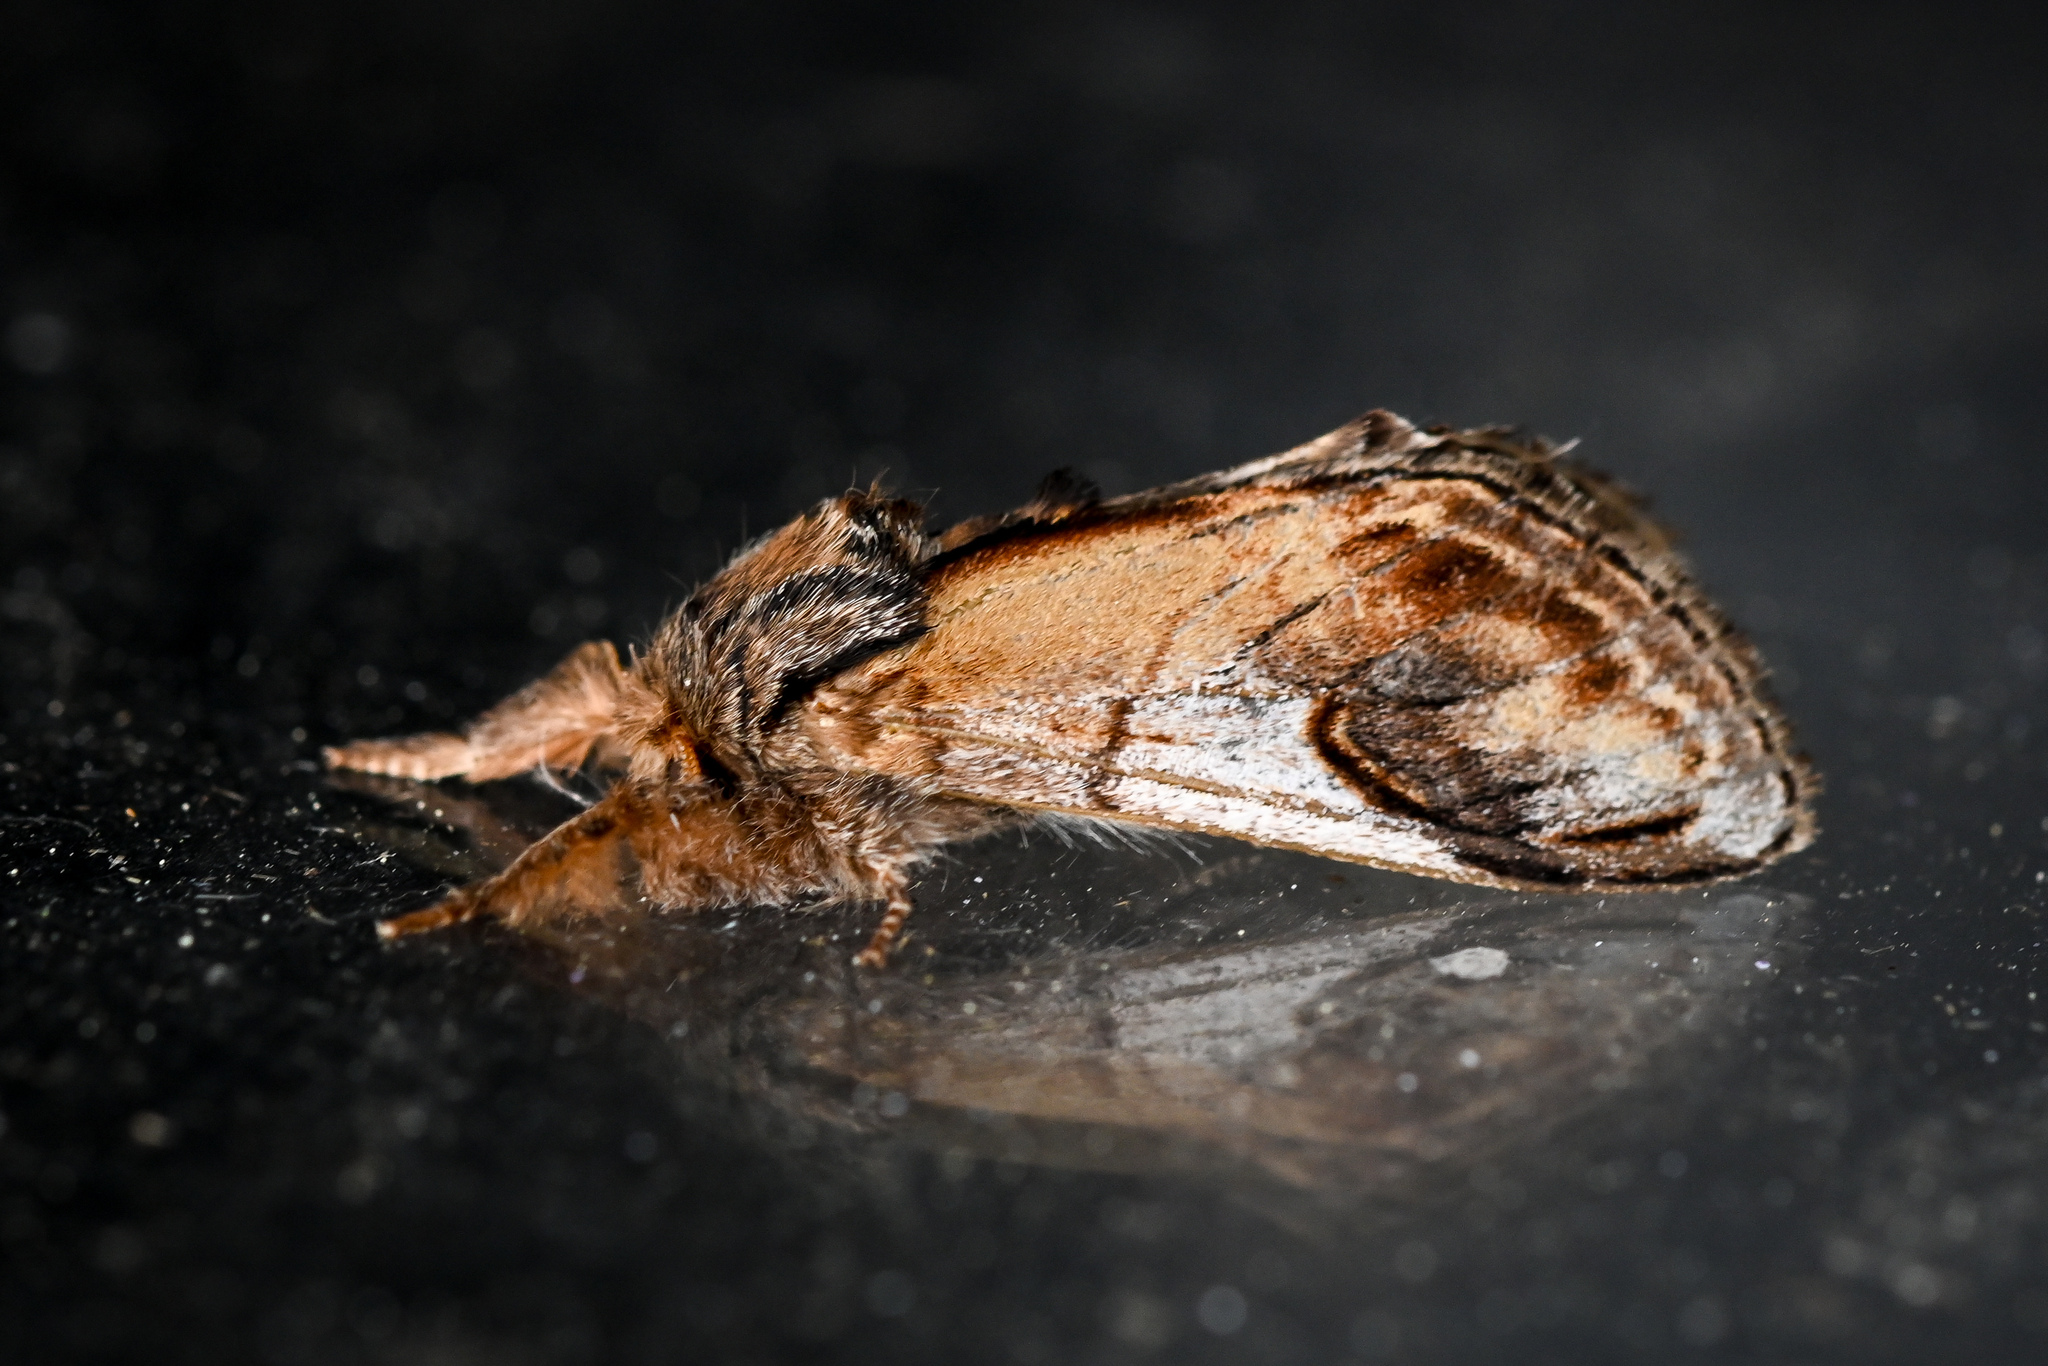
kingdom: Animalia
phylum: Arthropoda
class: Insecta
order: Lepidoptera
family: Notodontidae
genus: Notodonta
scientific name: Notodonta ziczac
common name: Pebble prominent
